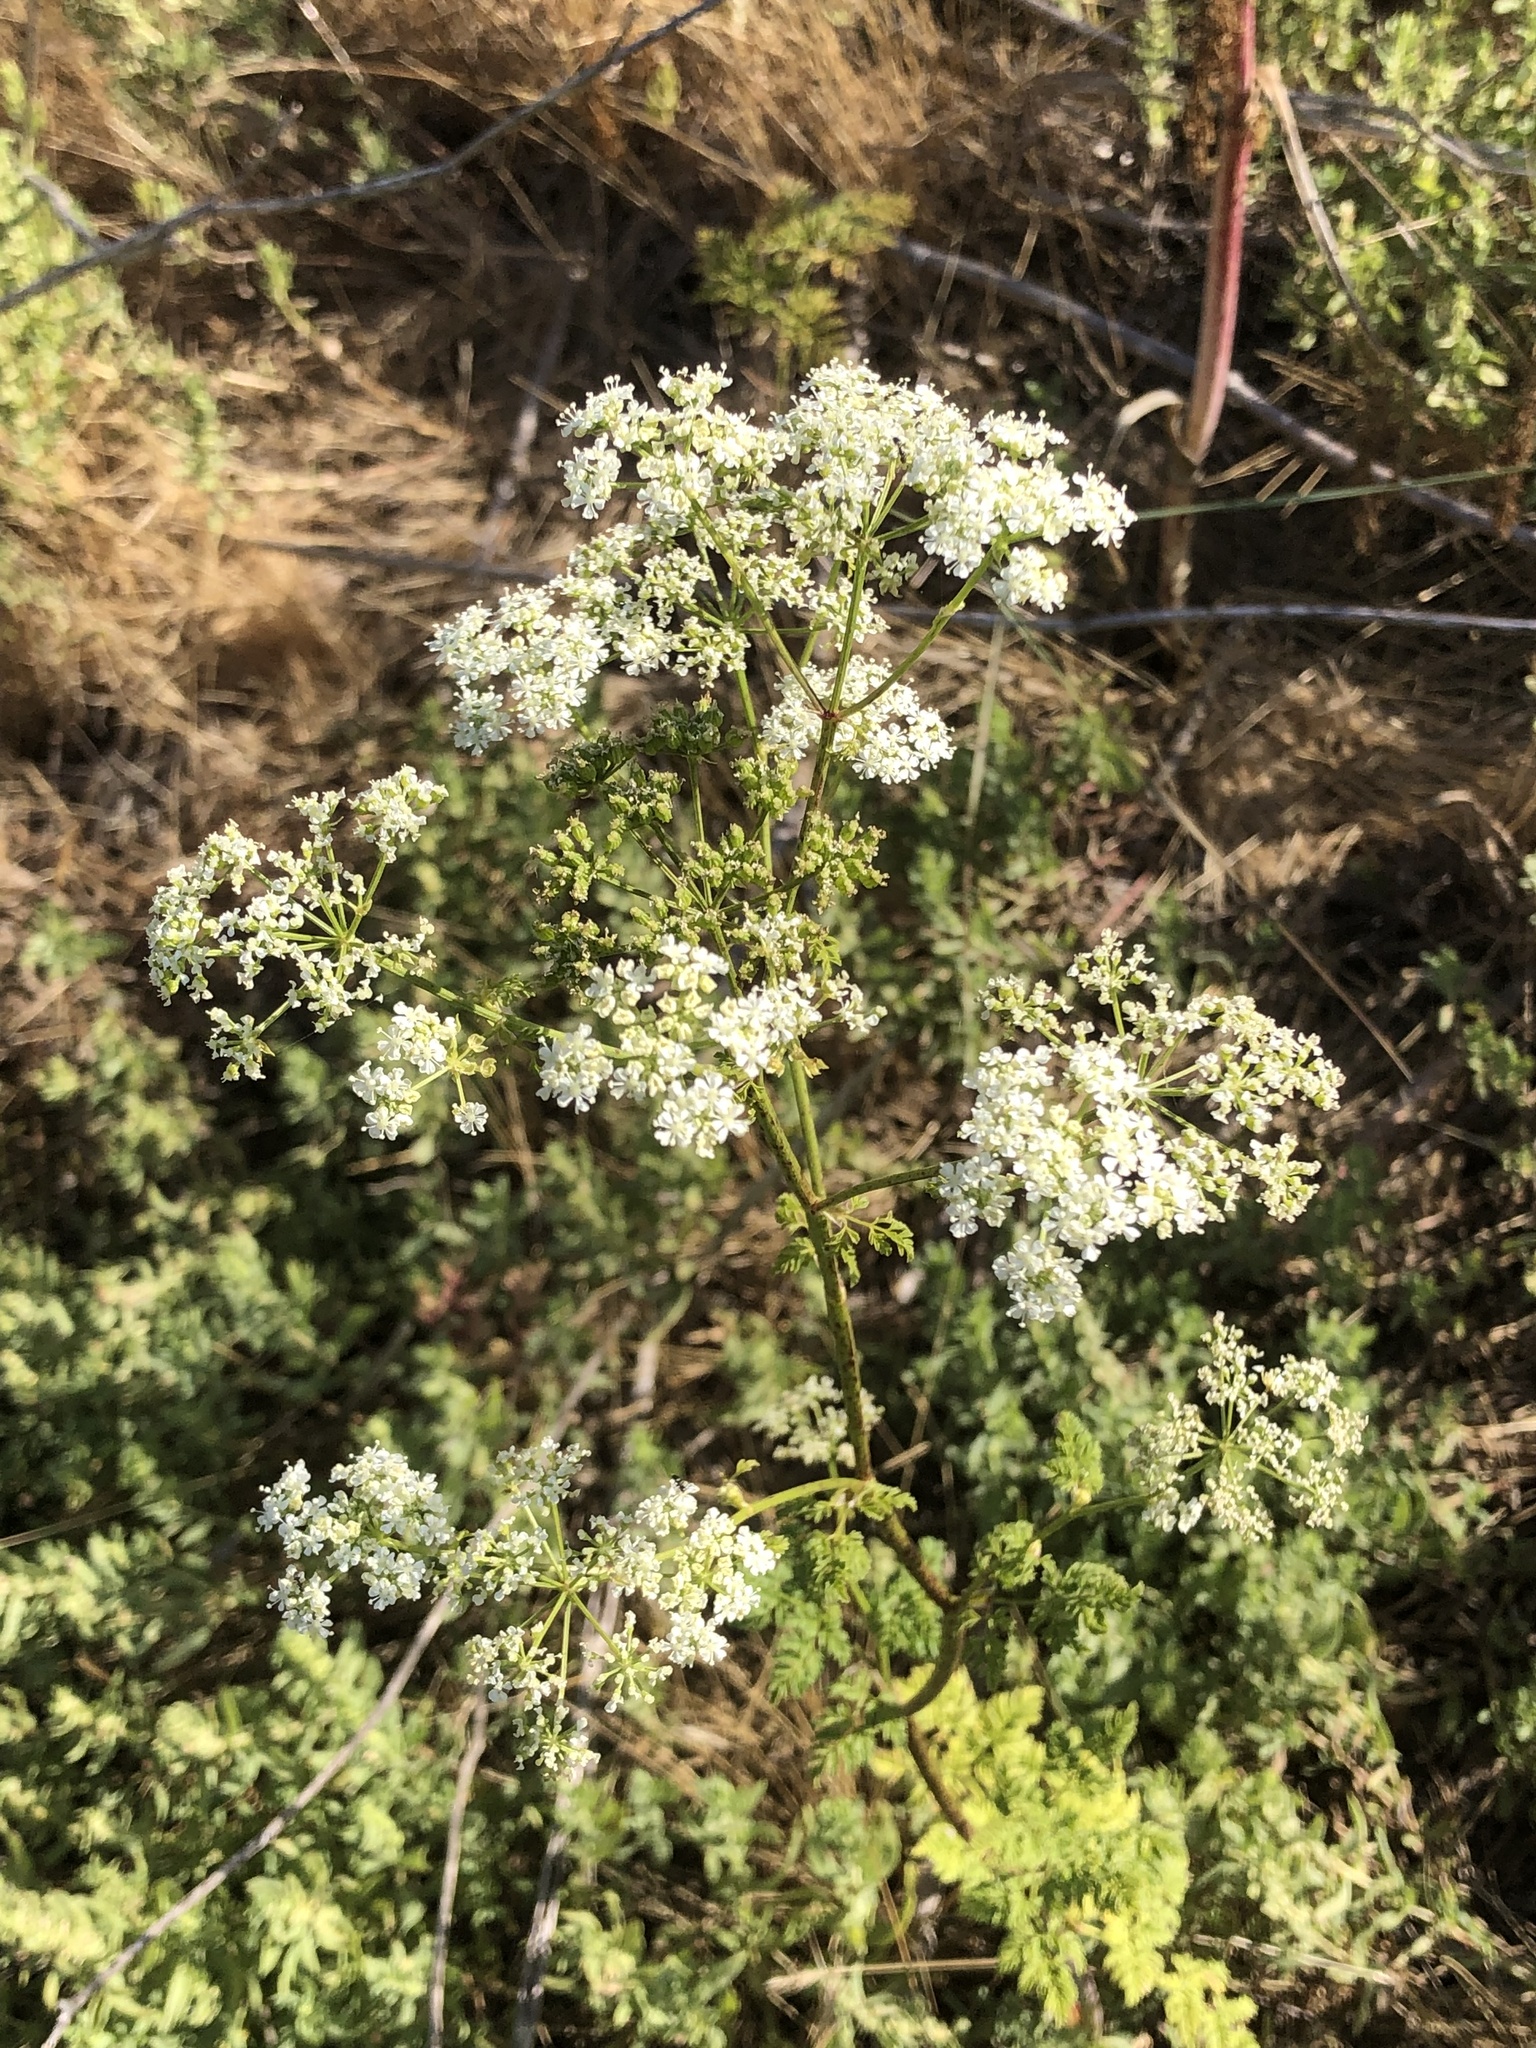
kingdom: Plantae
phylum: Tracheophyta
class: Magnoliopsida
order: Apiales
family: Apiaceae
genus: Conium
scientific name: Conium maculatum
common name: Hemlock
